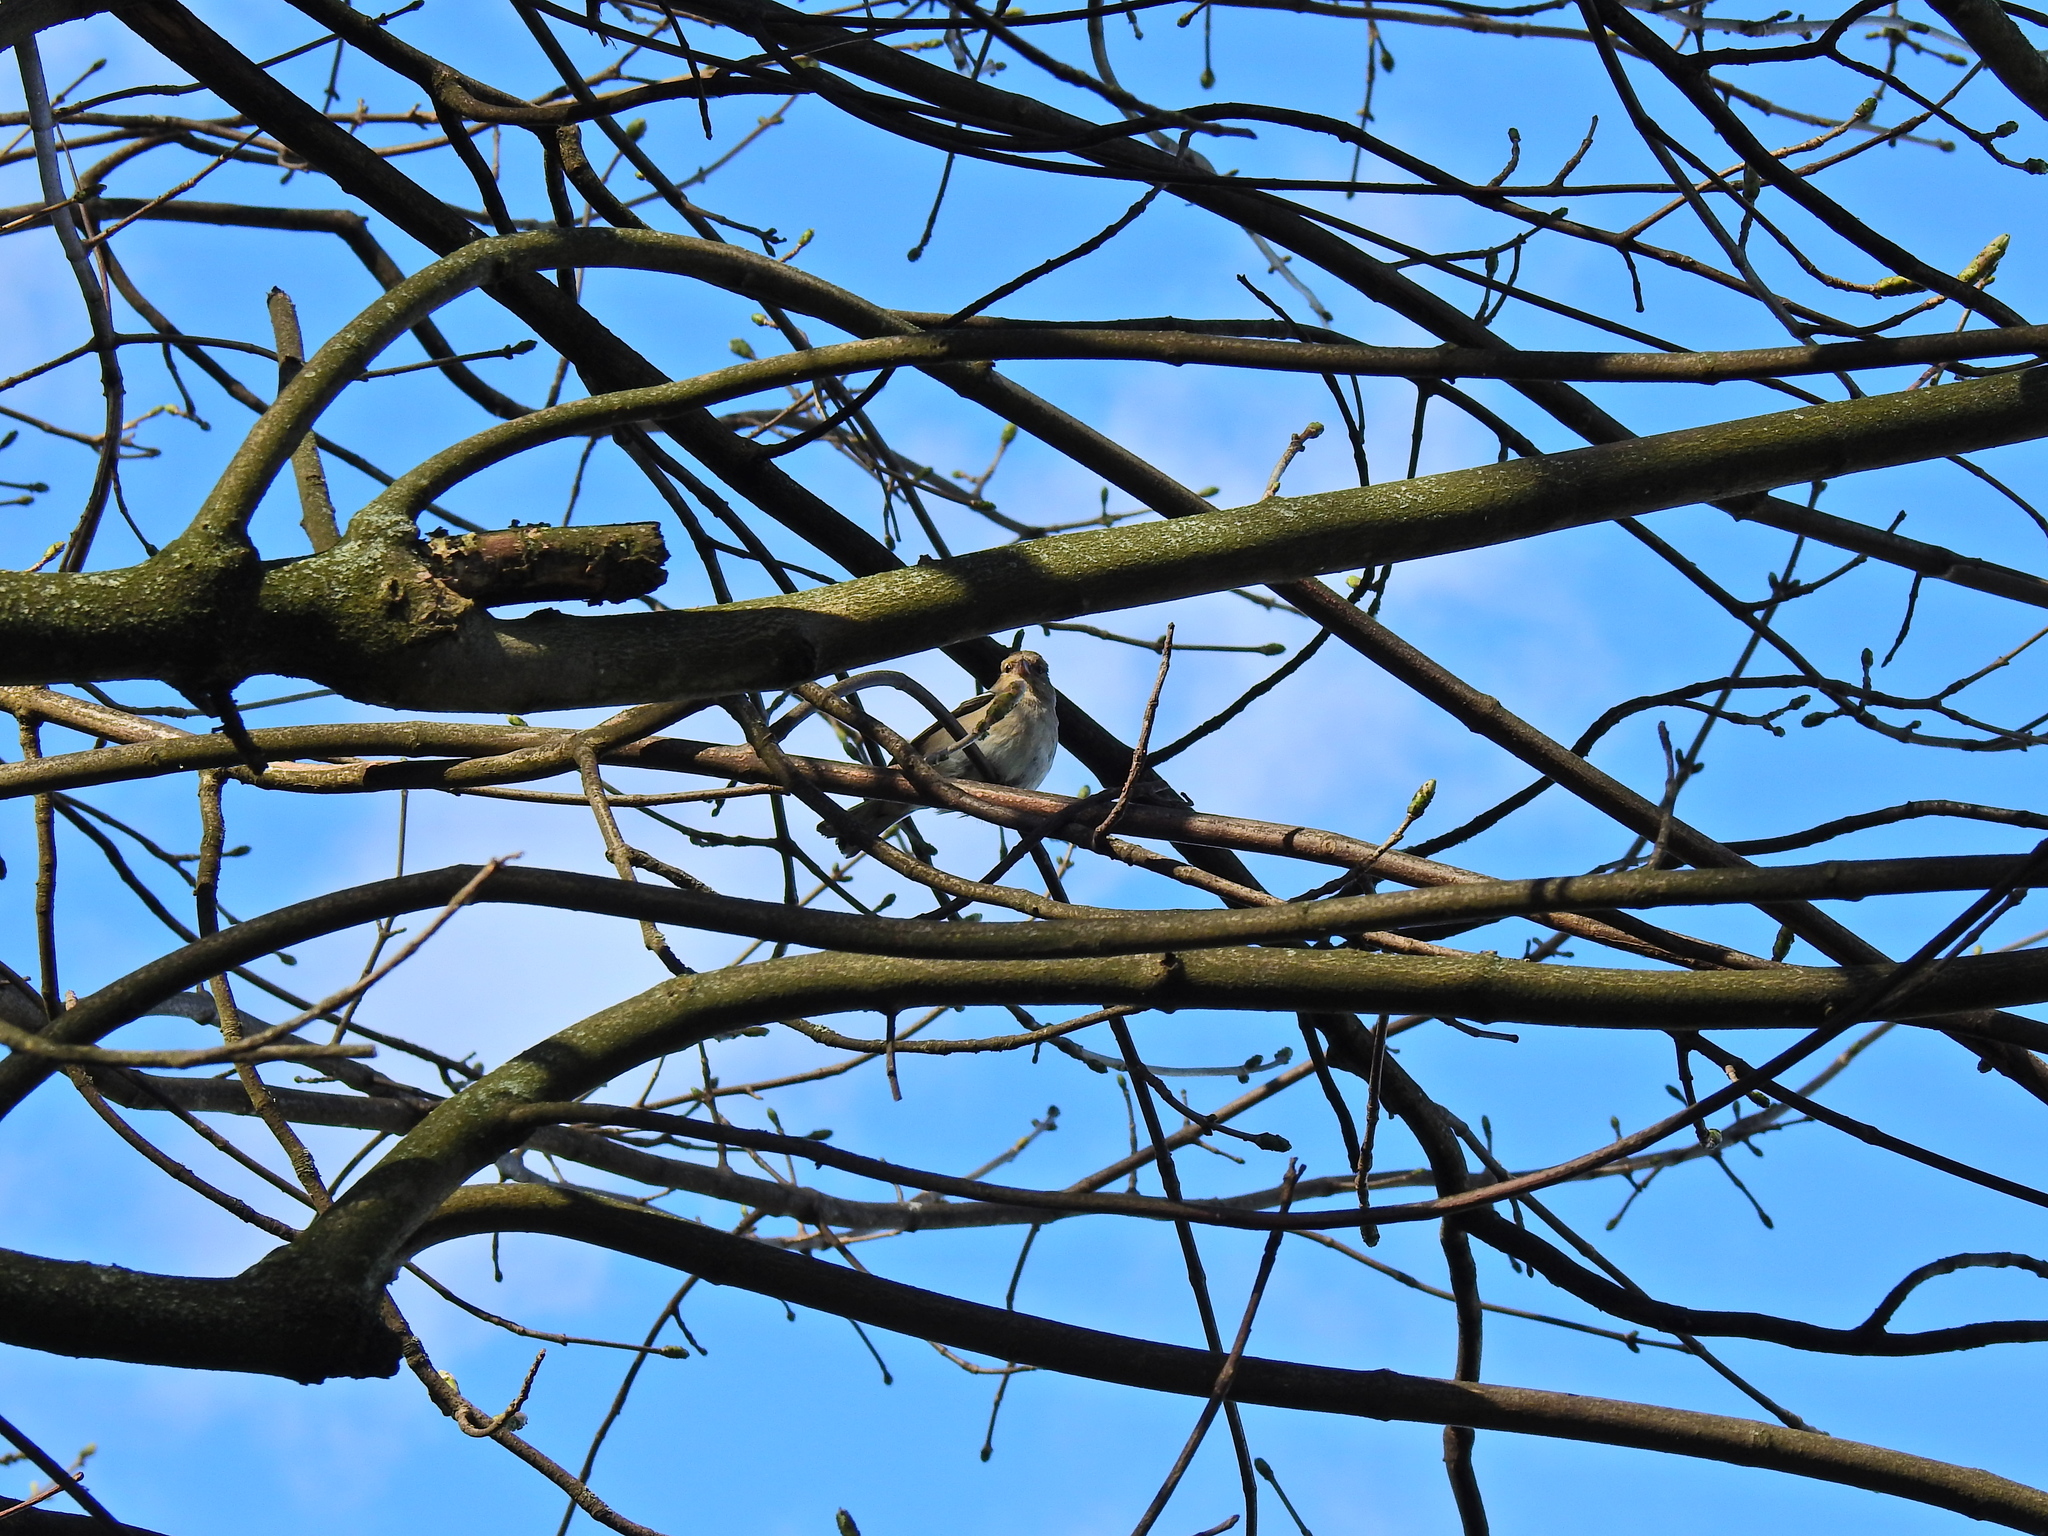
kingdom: Animalia
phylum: Chordata
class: Aves
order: Passeriformes
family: Fringillidae
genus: Fringilla
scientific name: Fringilla coelebs
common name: Common chaffinch
